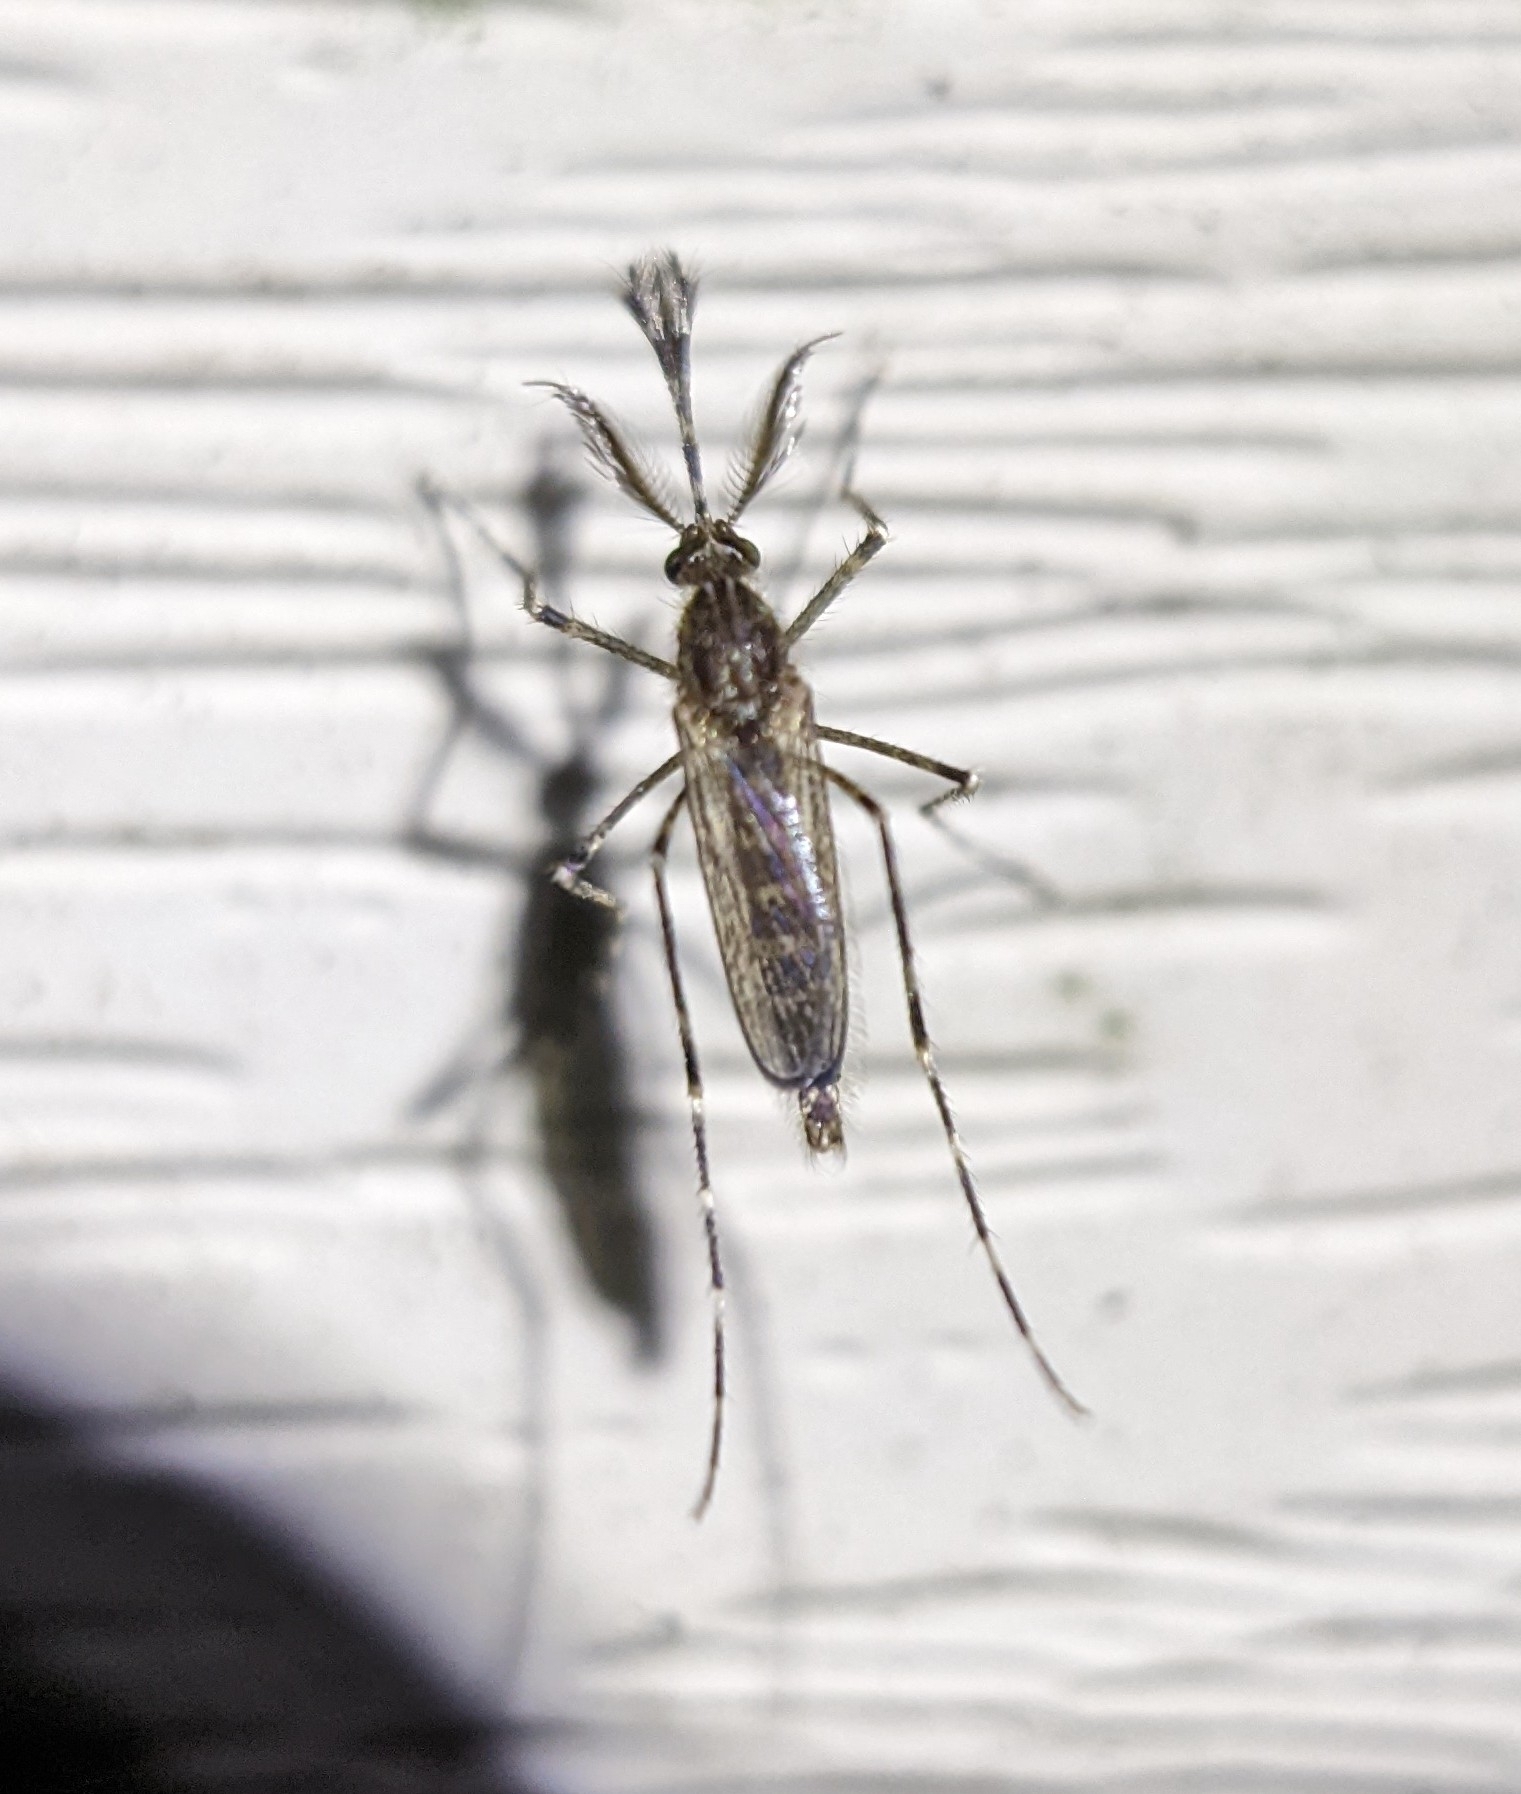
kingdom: Animalia
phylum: Arthropoda
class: Insecta
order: Diptera
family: Culicidae
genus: Coquillettidia
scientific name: Coquillettidia perturbans
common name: Cattail mosquito
